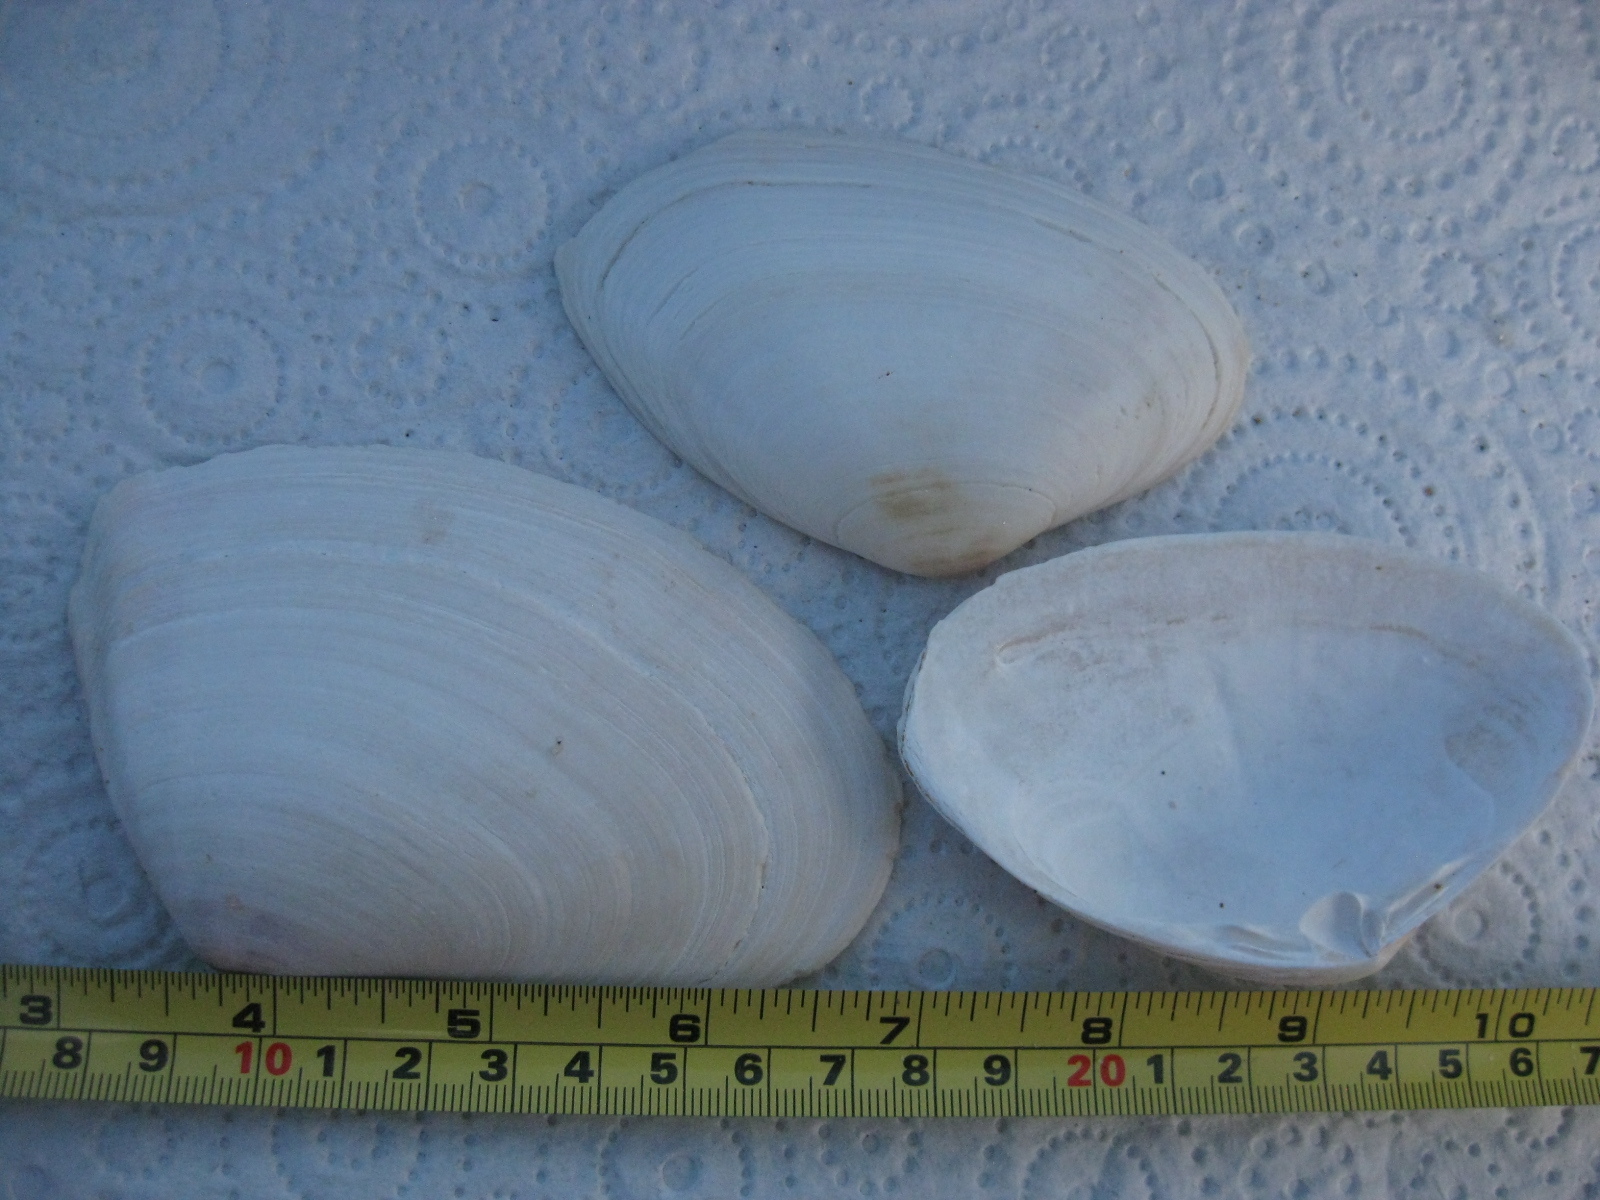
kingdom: Animalia
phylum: Mollusca
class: Bivalvia
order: Venerida
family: Mactridae
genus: Oxyperas
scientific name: Oxyperas elongatum
